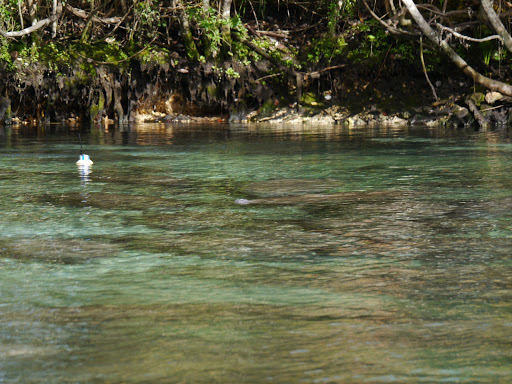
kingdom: Animalia
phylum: Chordata
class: Mammalia
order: Sirenia
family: Trichechidae
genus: Trichechus
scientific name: Trichechus manatus
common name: West indian manatee
